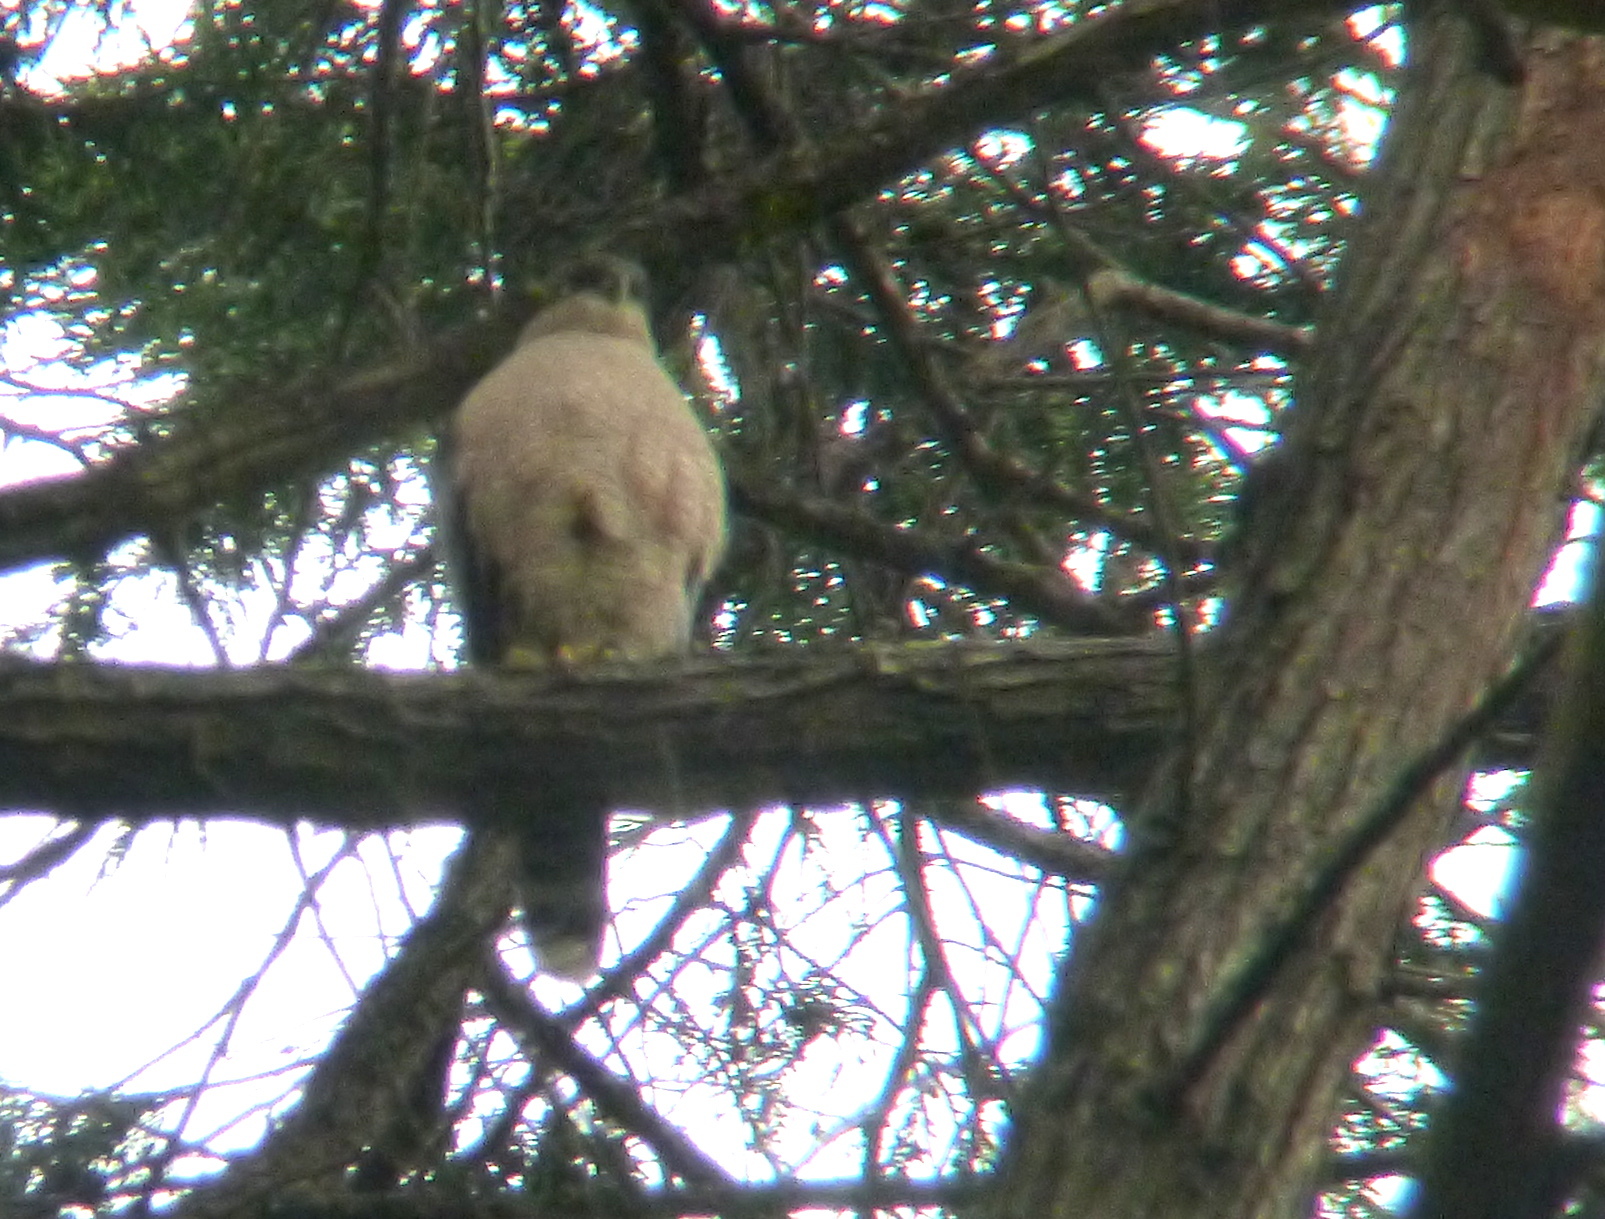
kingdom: Animalia
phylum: Chordata
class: Aves
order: Accipitriformes
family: Accipitridae
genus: Accipiter
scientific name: Accipiter cooperii
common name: Cooper's hawk
